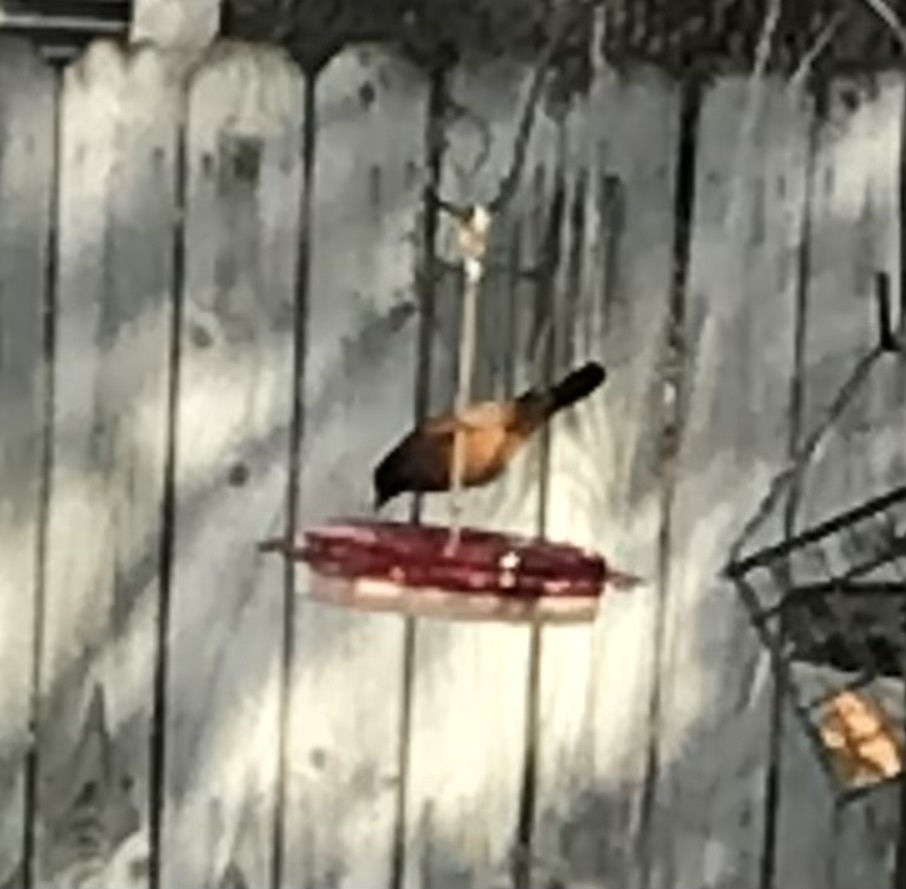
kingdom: Animalia
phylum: Chordata
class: Aves
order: Passeriformes
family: Icteridae
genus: Icterus
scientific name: Icterus spurius
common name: Orchard oriole
